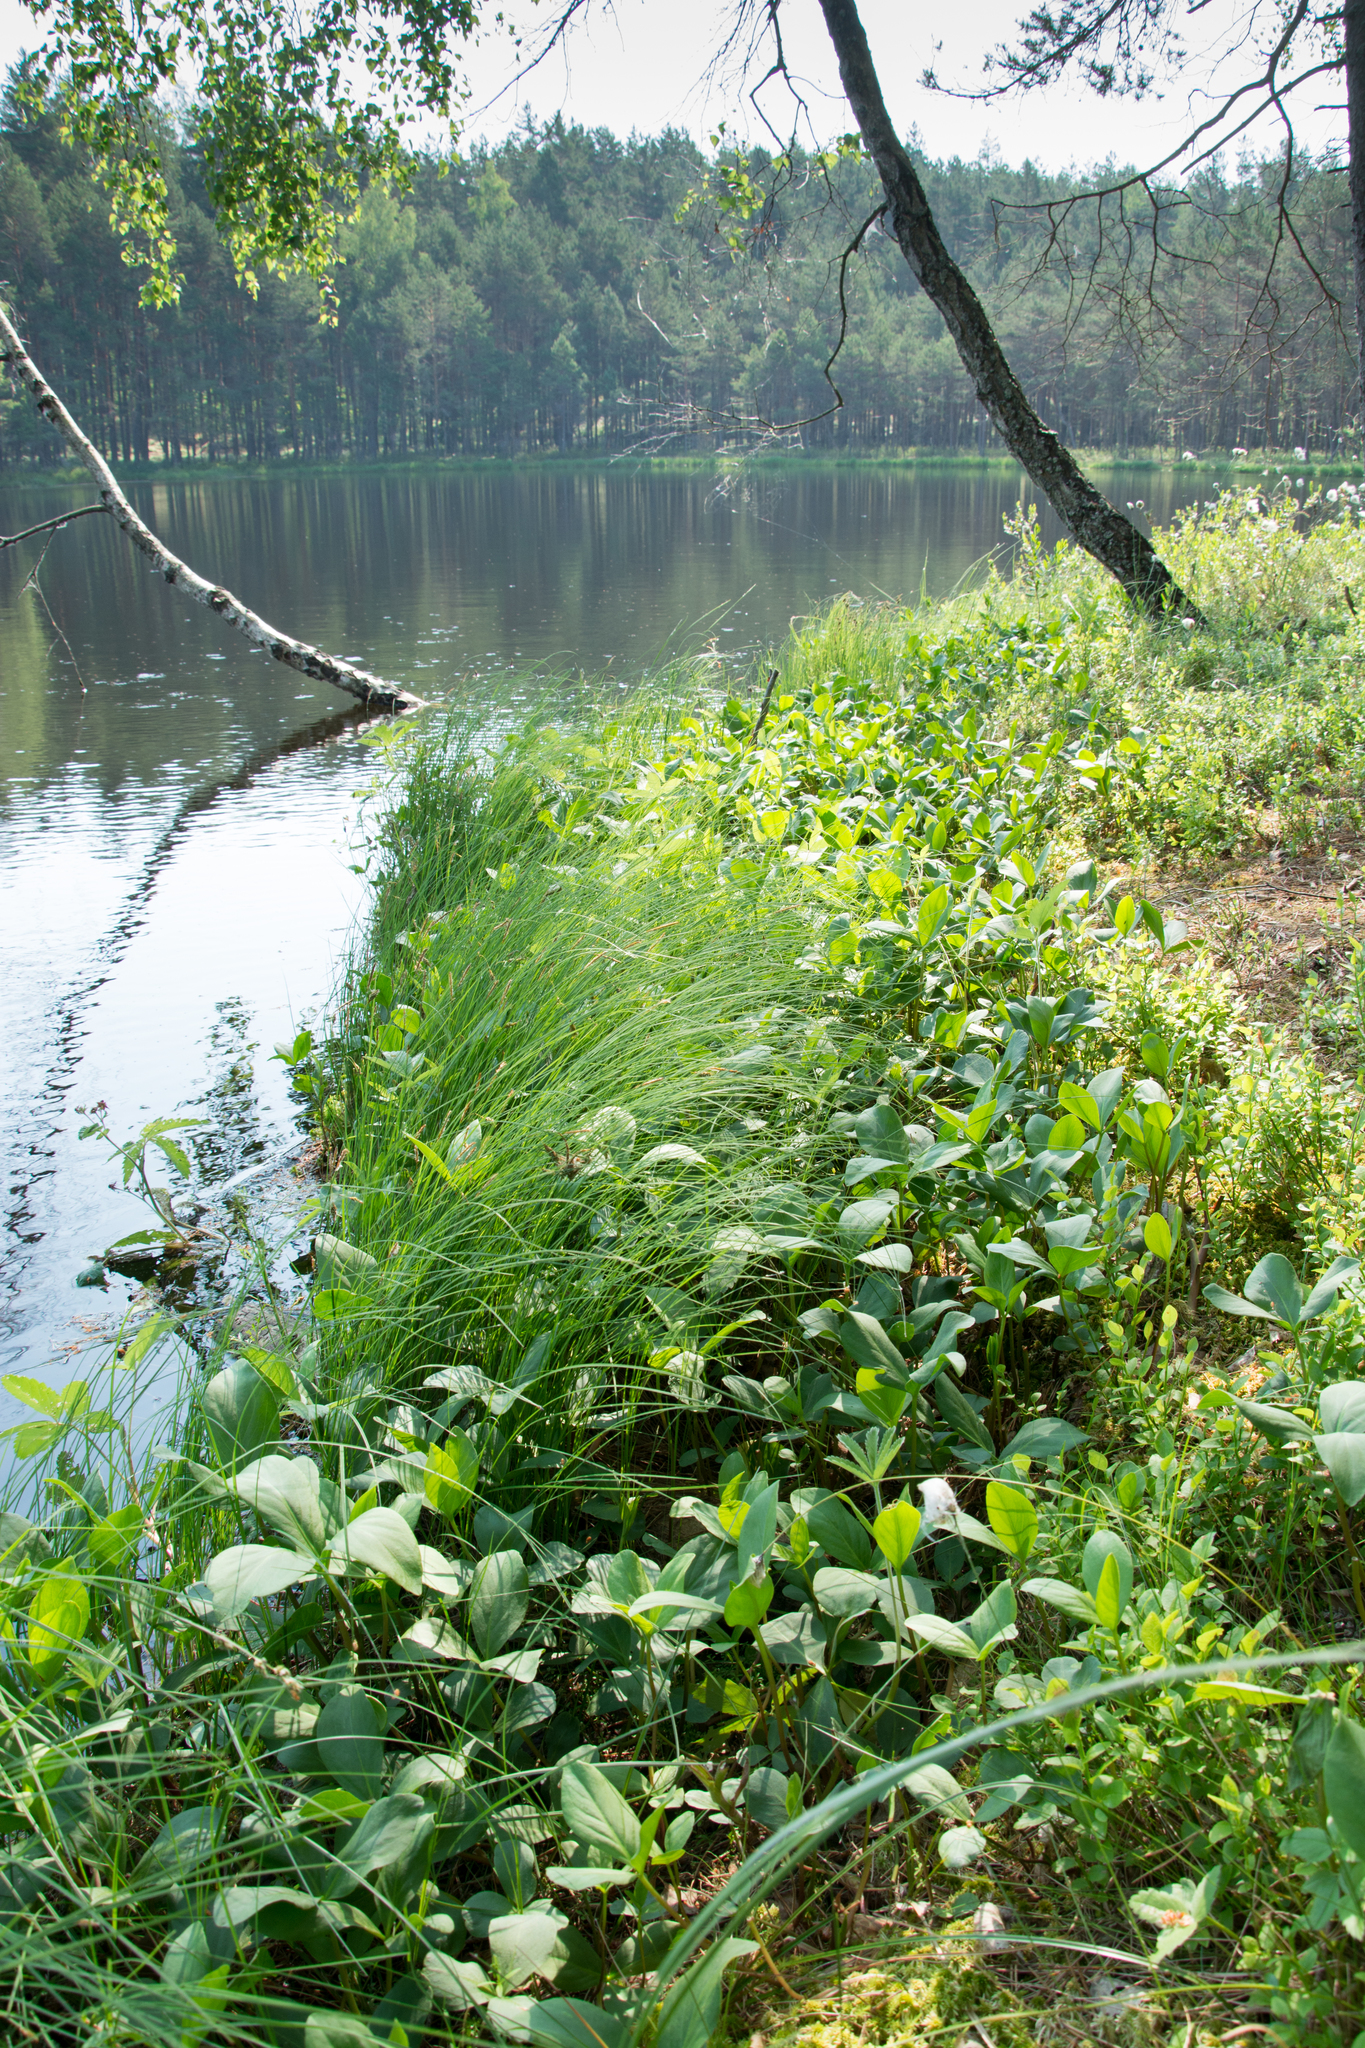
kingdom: Plantae
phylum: Tracheophyta
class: Liliopsida
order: Poales
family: Cyperaceae
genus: Carex
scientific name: Carex rostrata
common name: Bottle sedge
